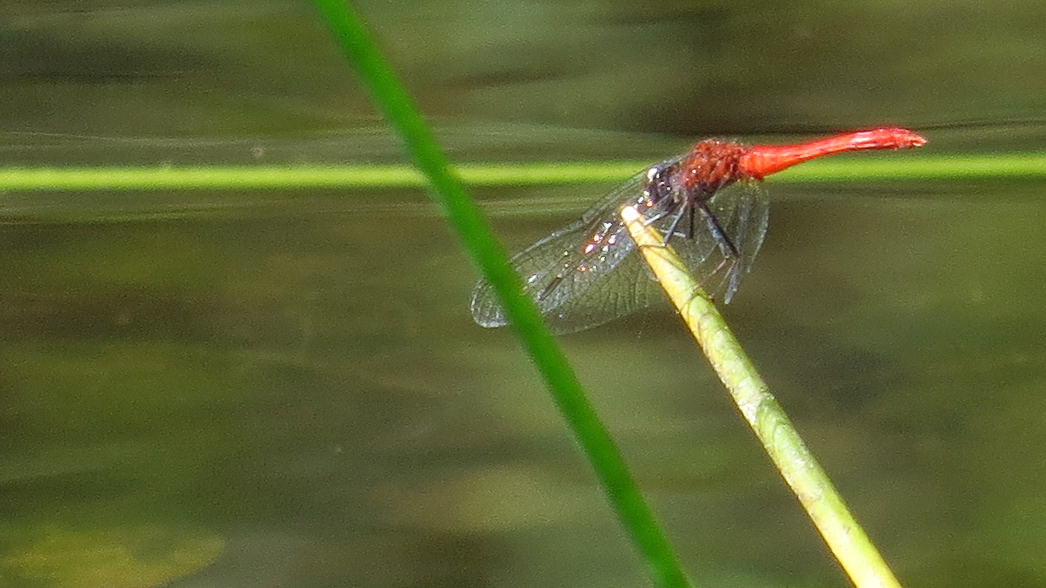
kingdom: Animalia
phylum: Arthropoda
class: Insecta
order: Odonata
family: Libellulidae
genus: Nannodiplax
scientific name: Nannodiplax rubra
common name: Pygmy percher
